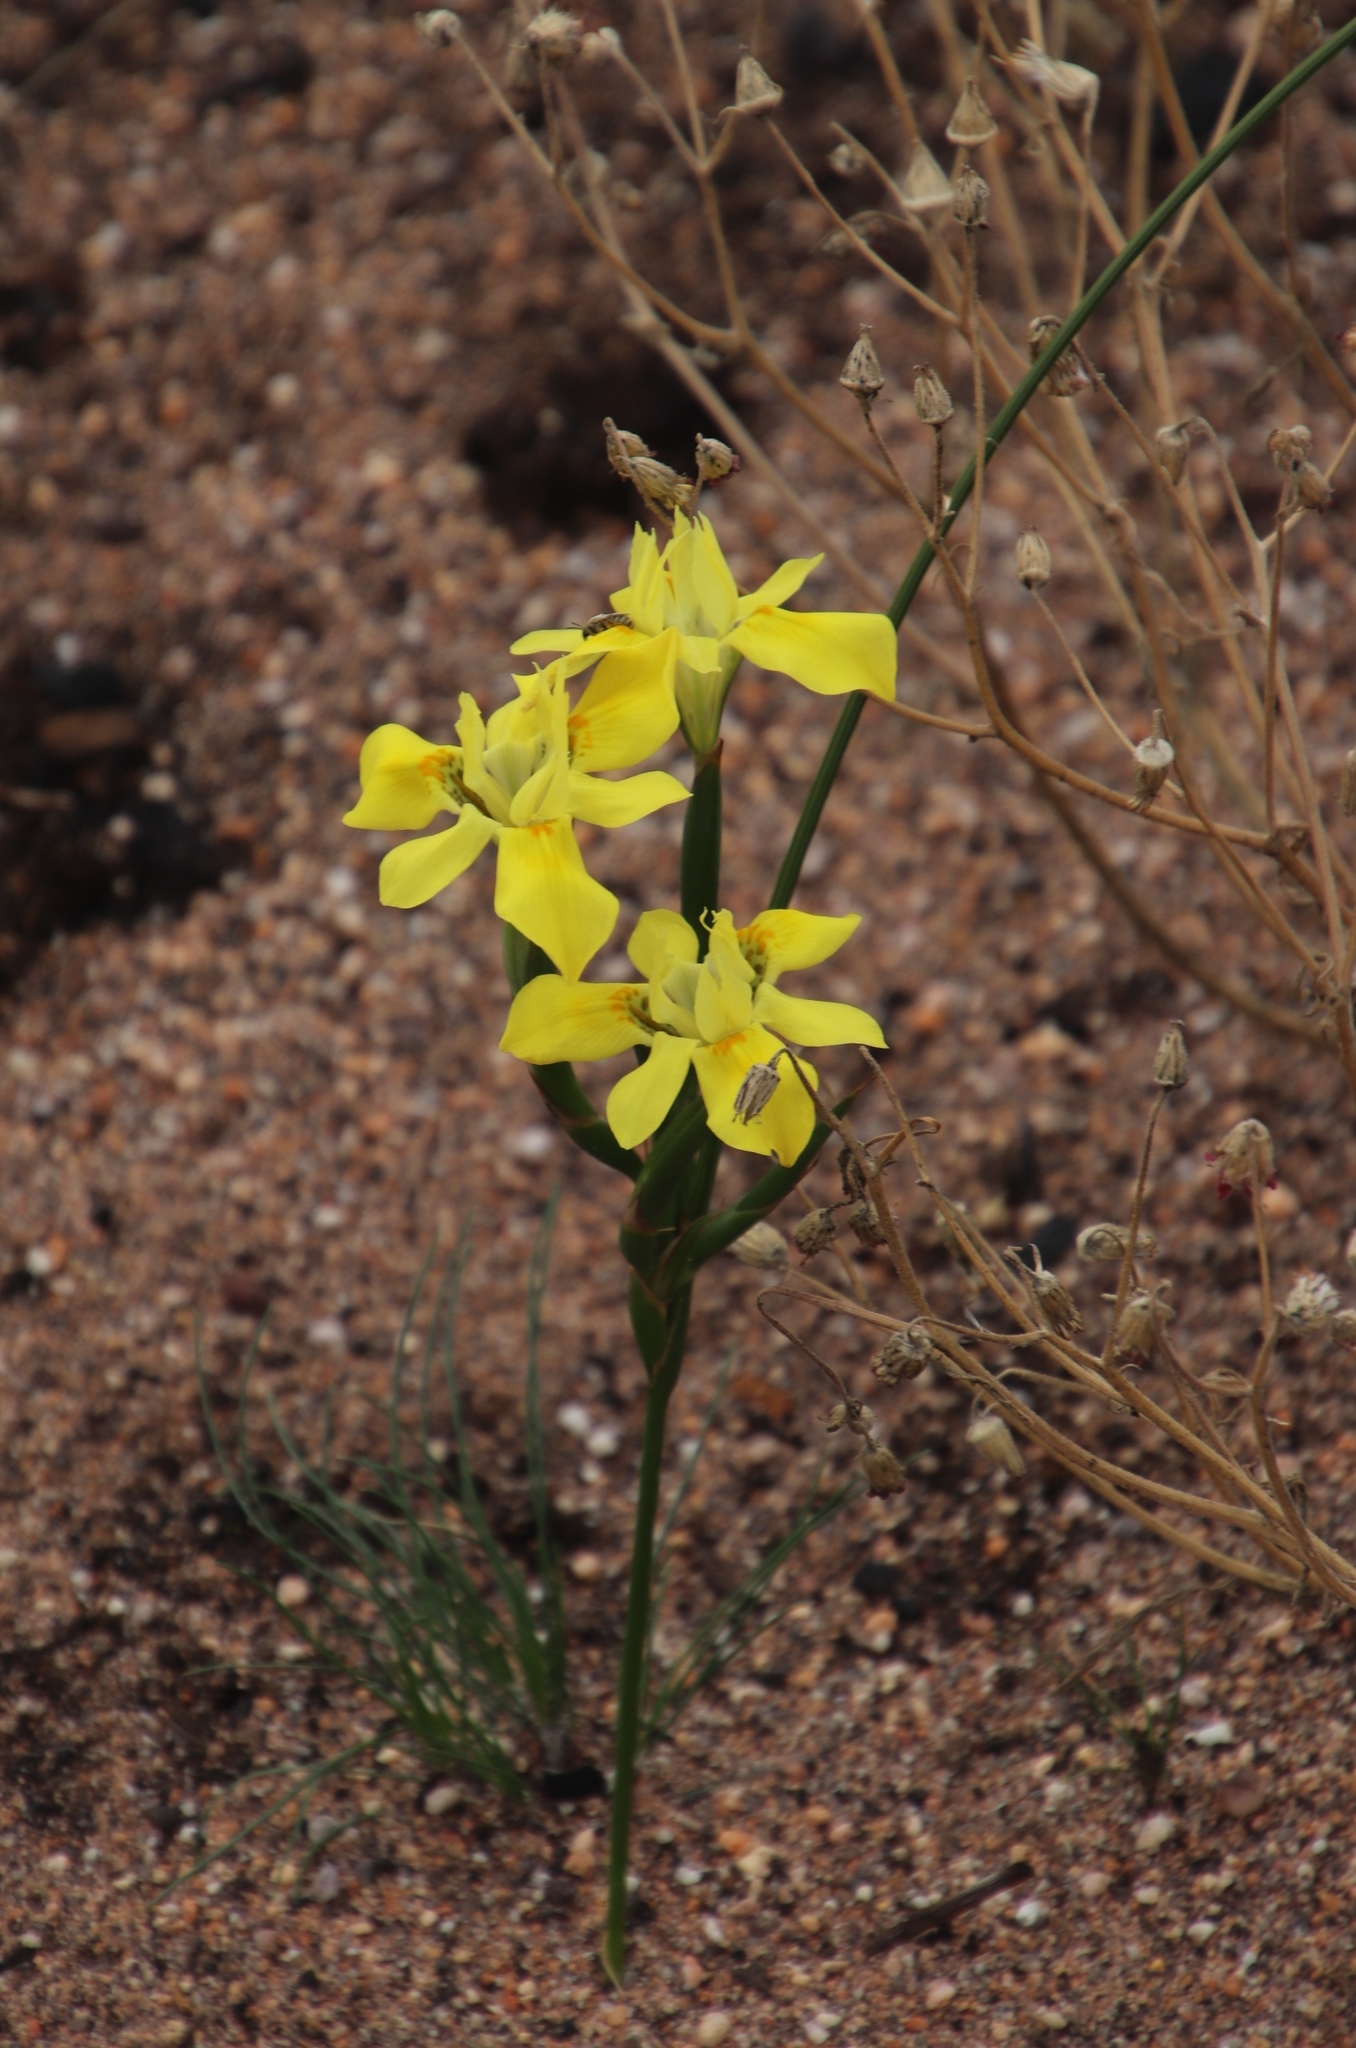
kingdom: Plantae
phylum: Tracheophyta
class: Liliopsida
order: Asparagales
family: Iridaceae
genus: Moraea
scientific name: Moraea fugax
